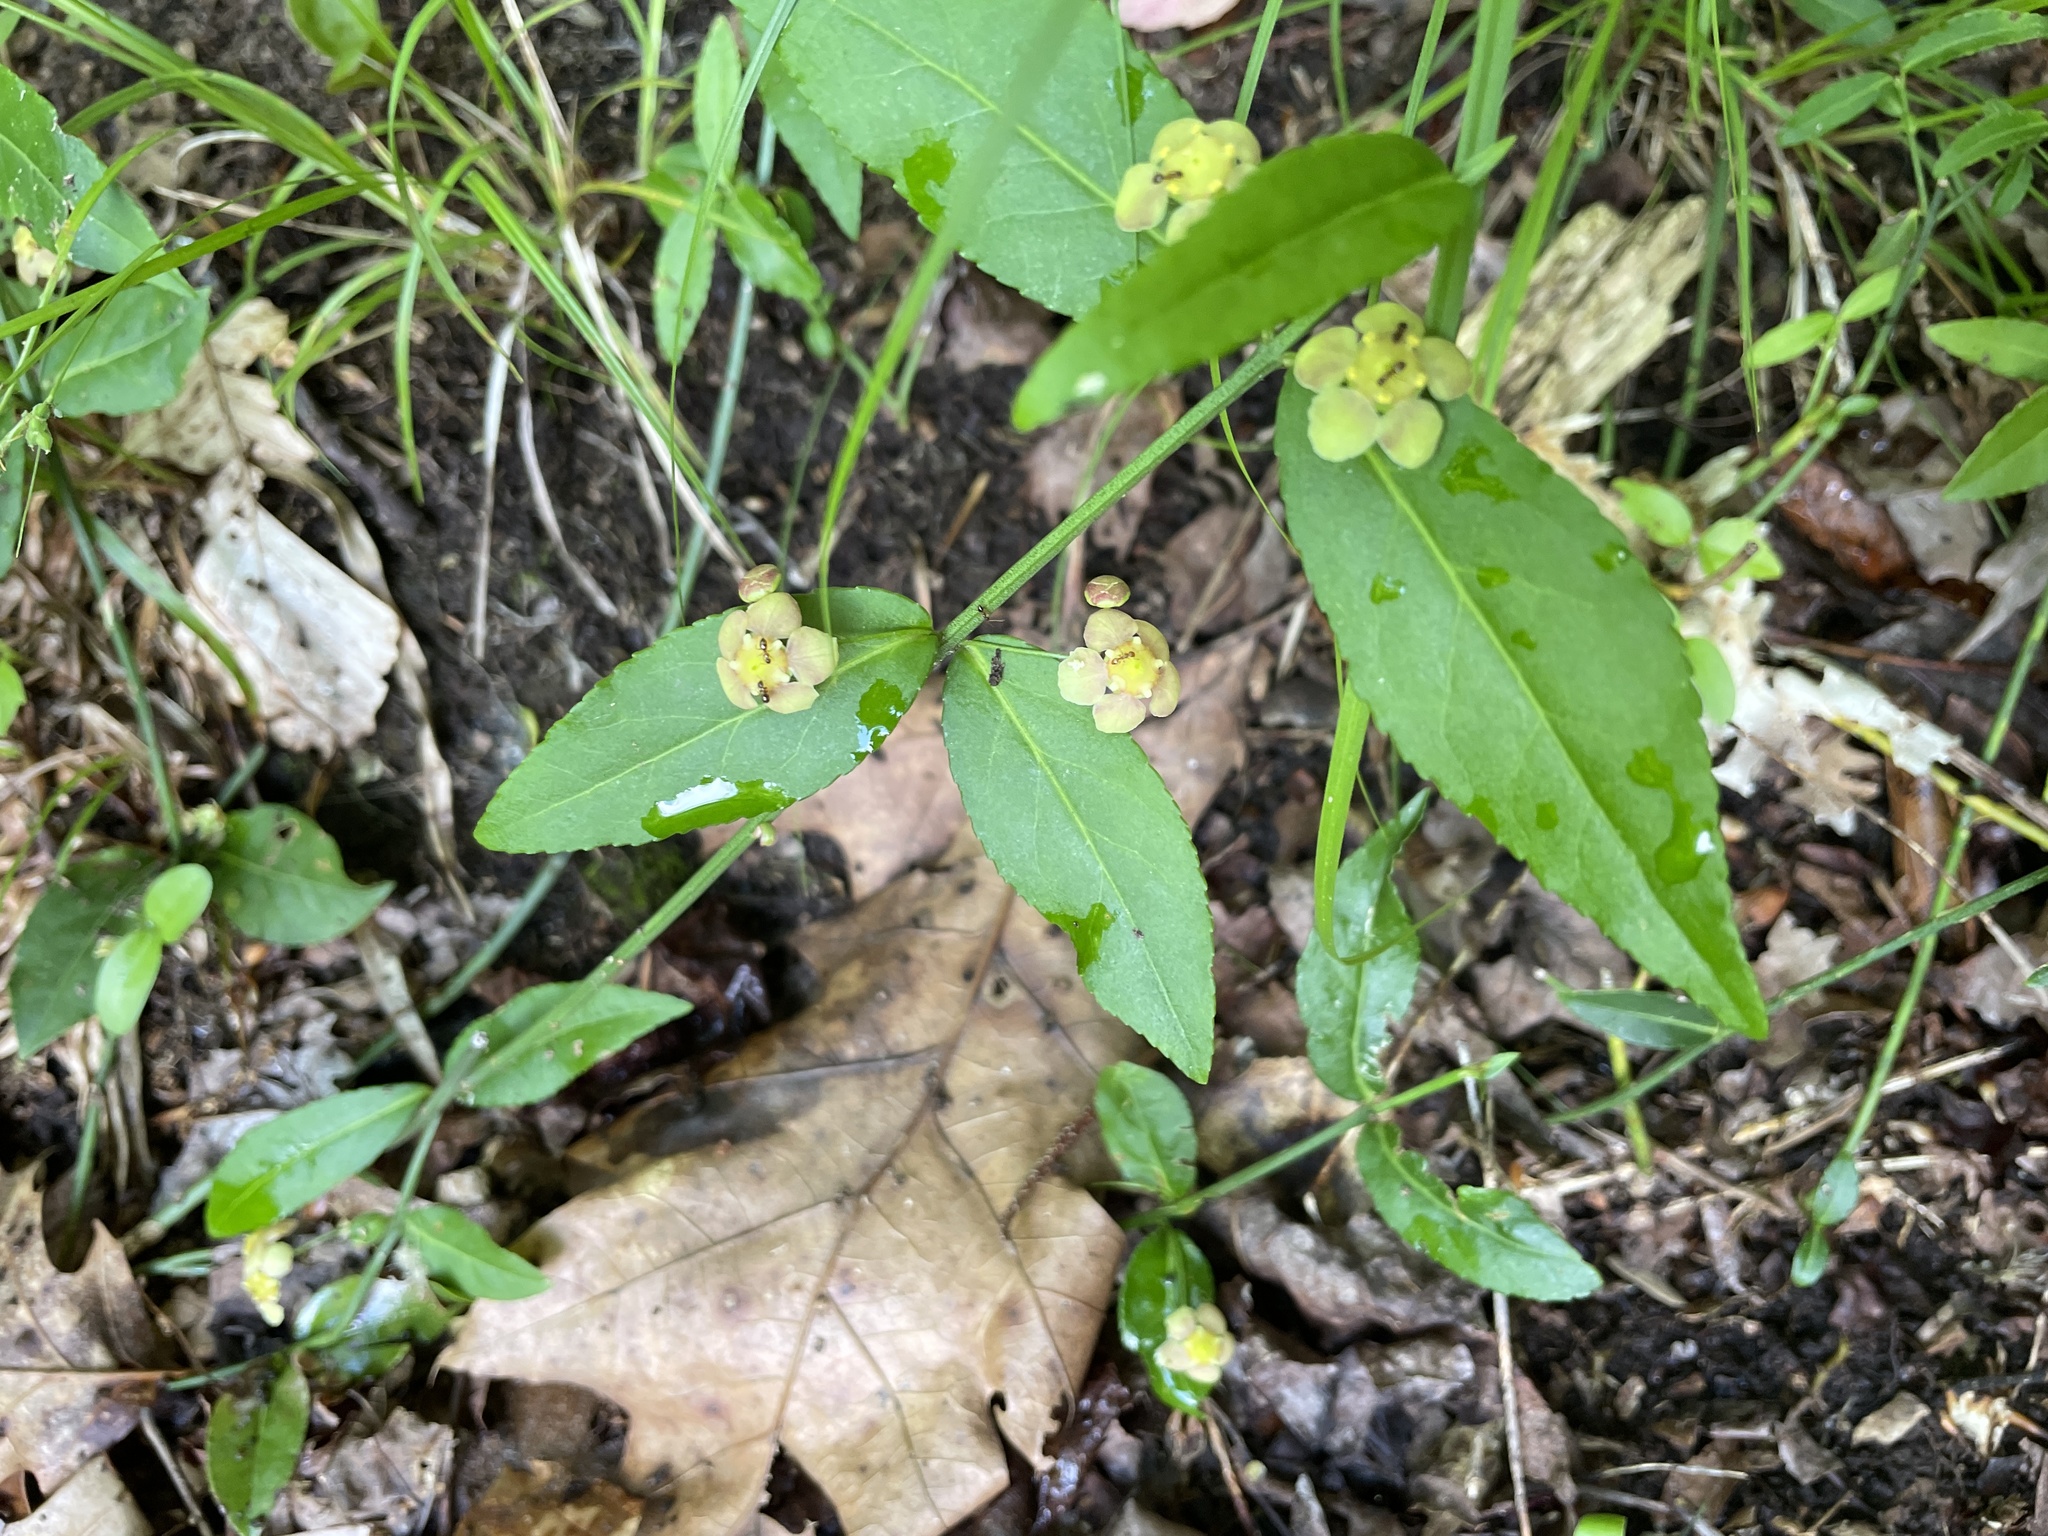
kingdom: Plantae
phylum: Tracheophyta
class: Magnoliopsida
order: Celastrales
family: Celastraceae
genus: Euonymus
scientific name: Euonymus americanus
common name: Bursting-heart
